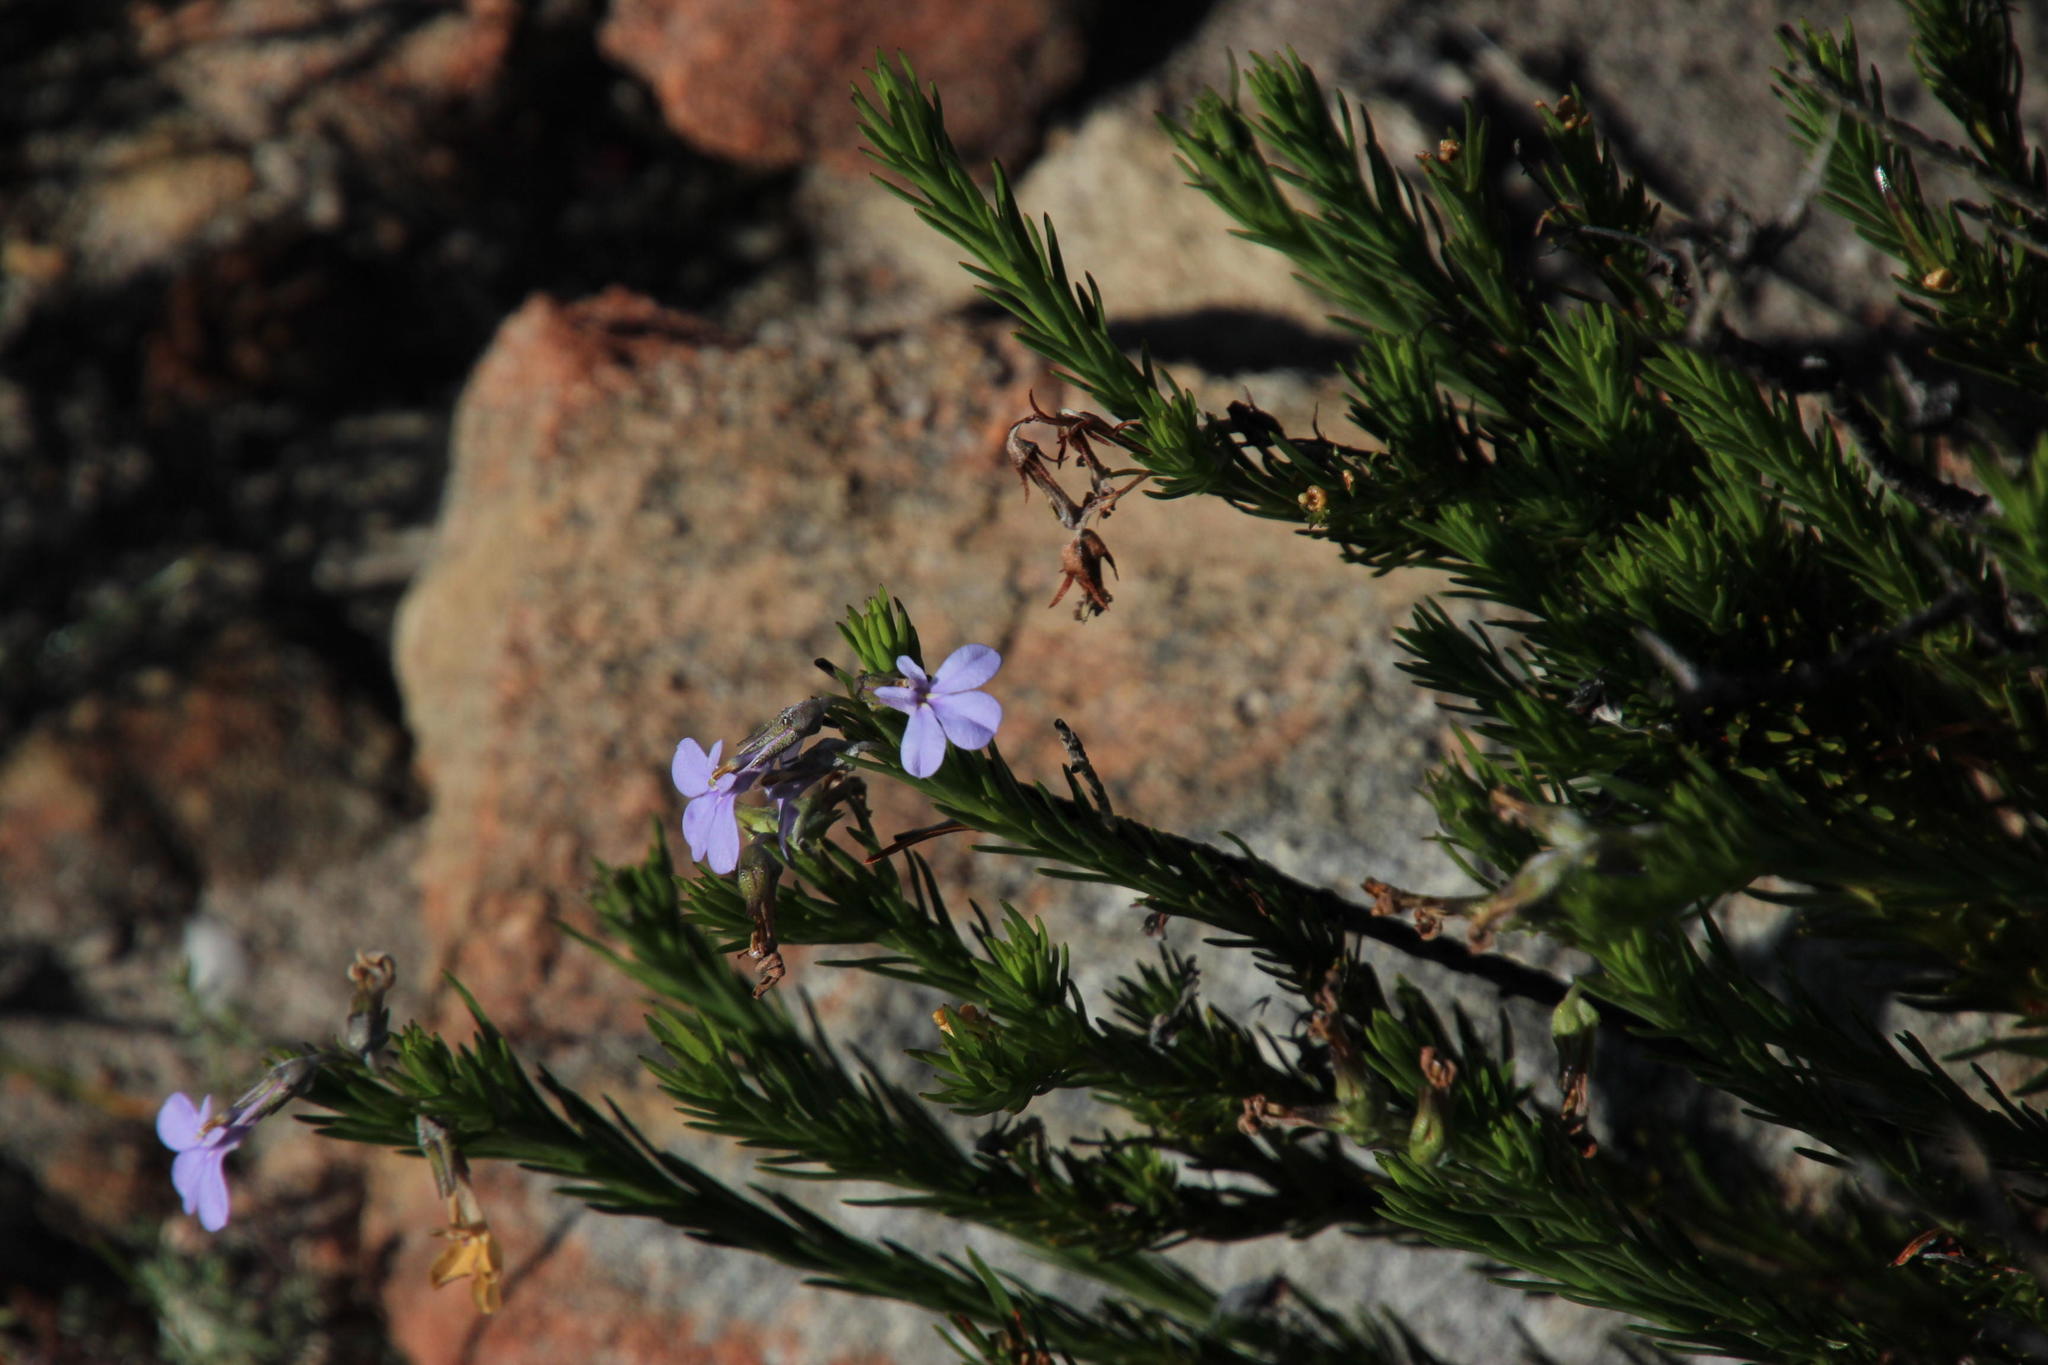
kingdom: Plantae
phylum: Tracheophyta
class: Magnoliopsida
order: Asterales
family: Campanulaceae
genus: Lobelia
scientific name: Lobelia pinifolia
